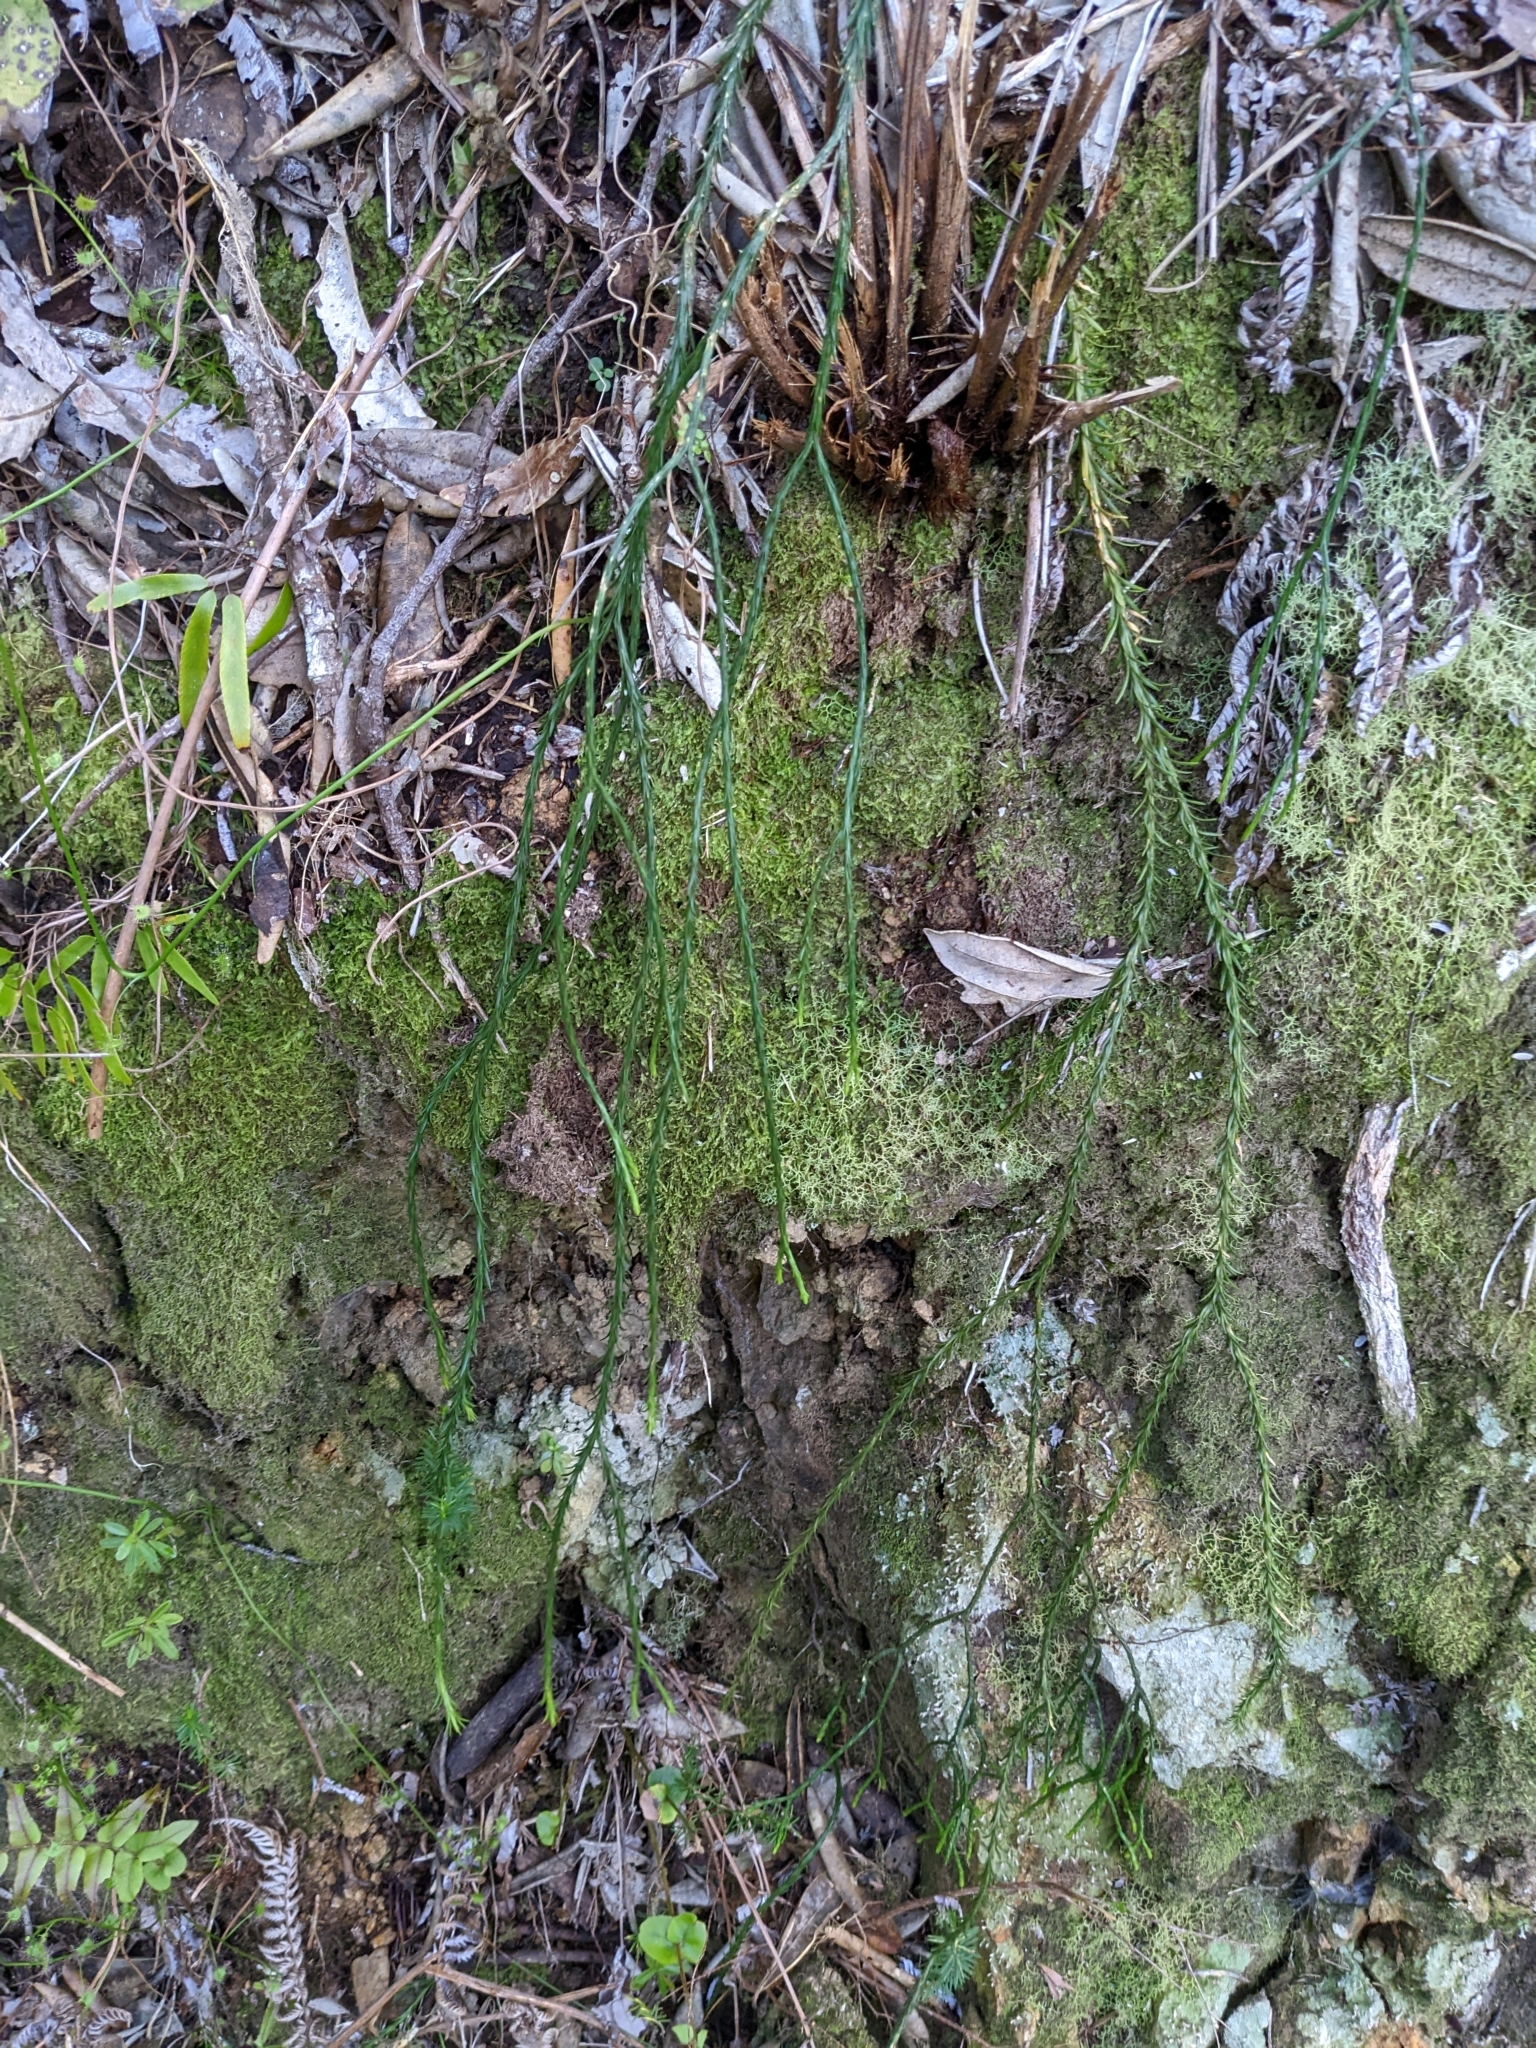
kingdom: Plantae
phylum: Tracheophyta
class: Lycopodiopsida
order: Lycopodiales
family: Lycopodiaceae
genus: Phlegmariurus
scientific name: Phlegmariurus billardierei
